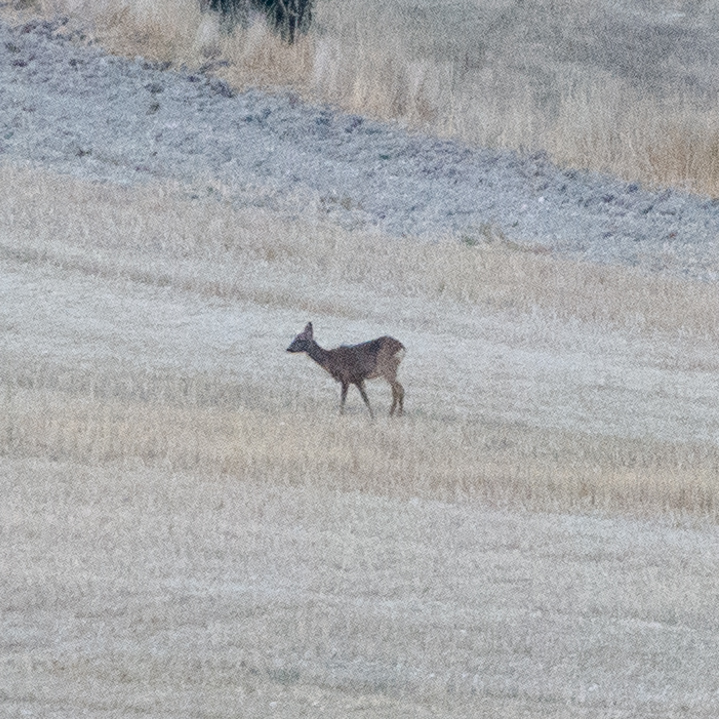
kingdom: Animalia
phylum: Chordata
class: Mammalia
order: Artiodactyla
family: Cervidae
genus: Capreolus
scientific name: Capreolus capreolus
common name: Western roe deer
